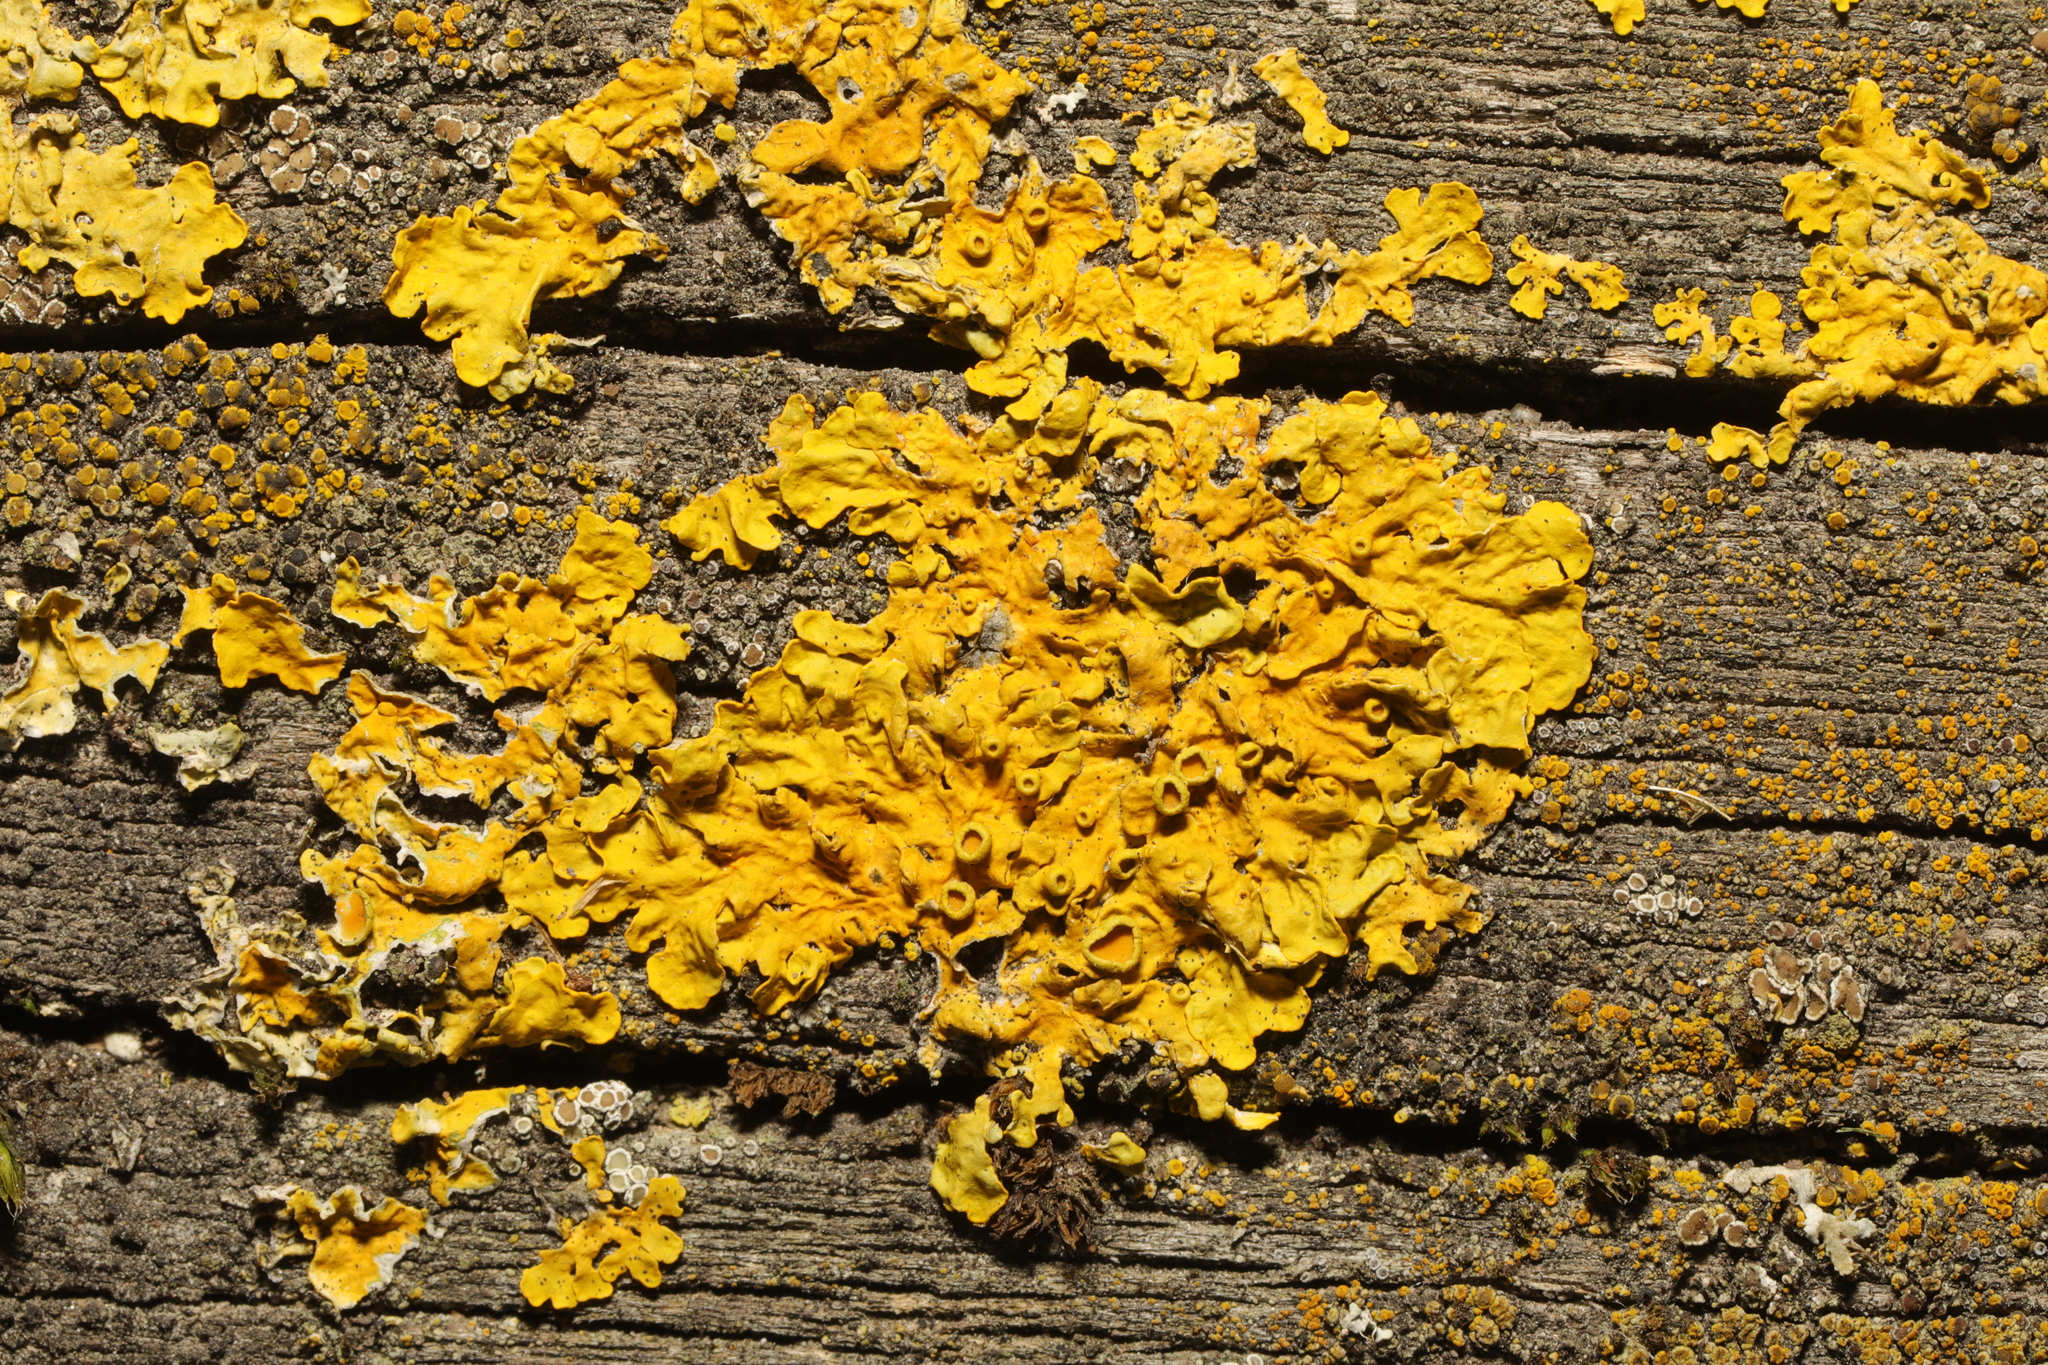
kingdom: Fungi
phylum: Ascomycota
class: Lecanoromycetes
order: Teloschistales
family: Teloschistaceae
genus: Xanthoria
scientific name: Xanthoria parietina
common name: Common orange lichen
